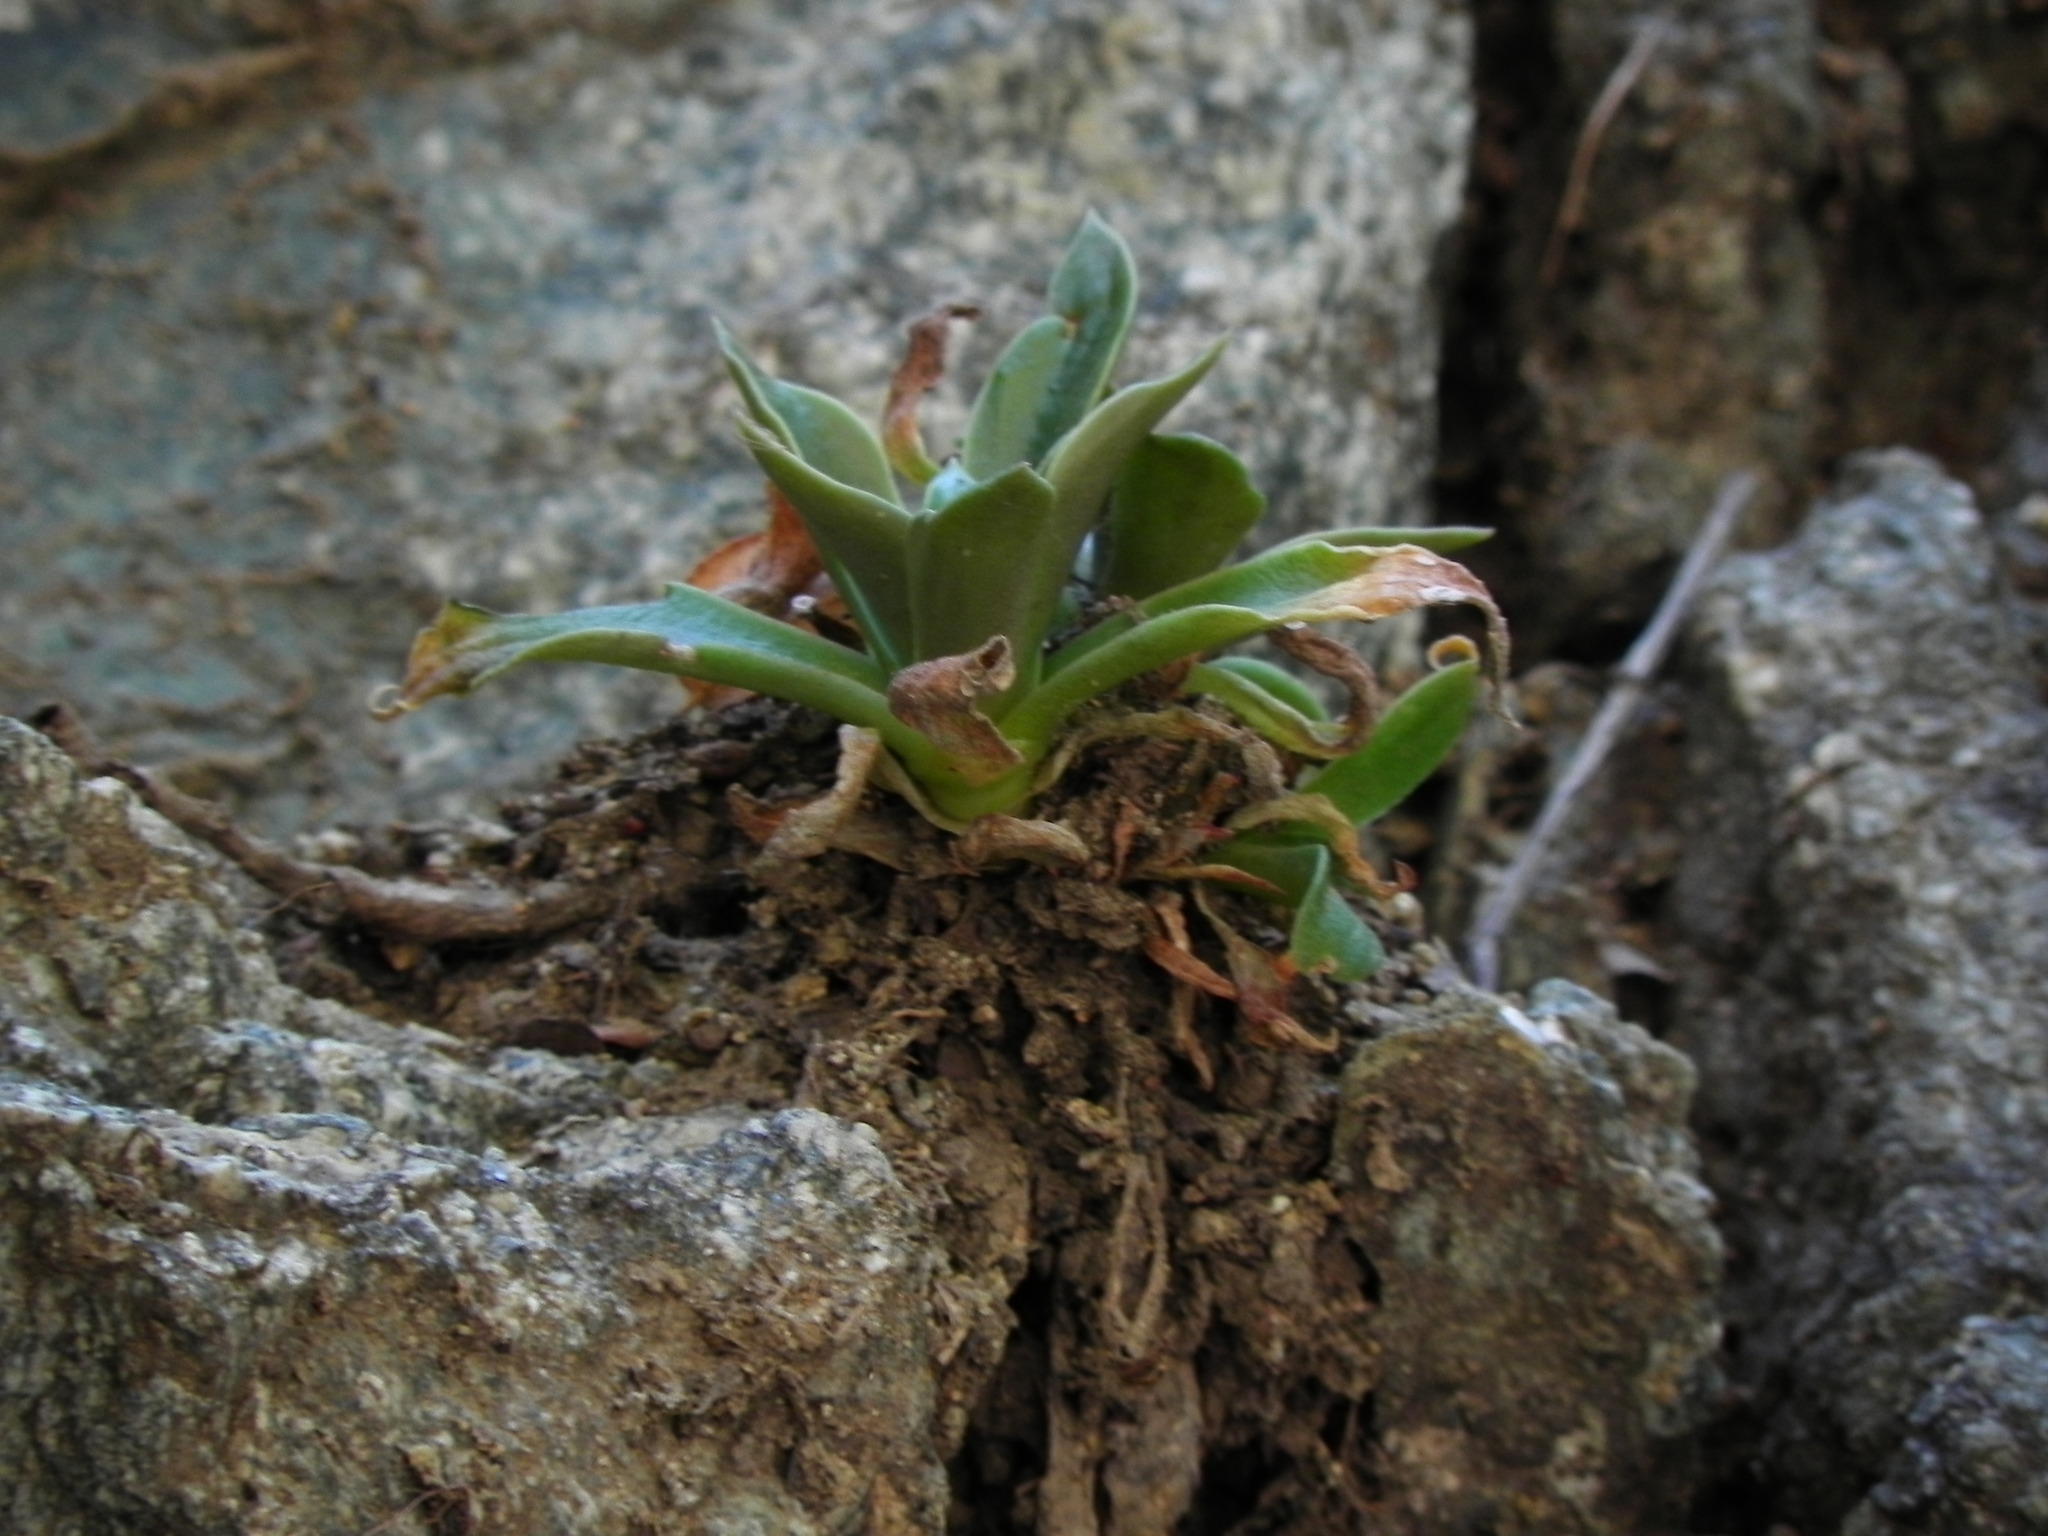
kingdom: Plantae
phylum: Tracheophyta
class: Magnoliopsida
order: Saxifragales
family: Crassulaceae
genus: Dudleya
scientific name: Dudleya cymosa
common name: Canyon dudleya
